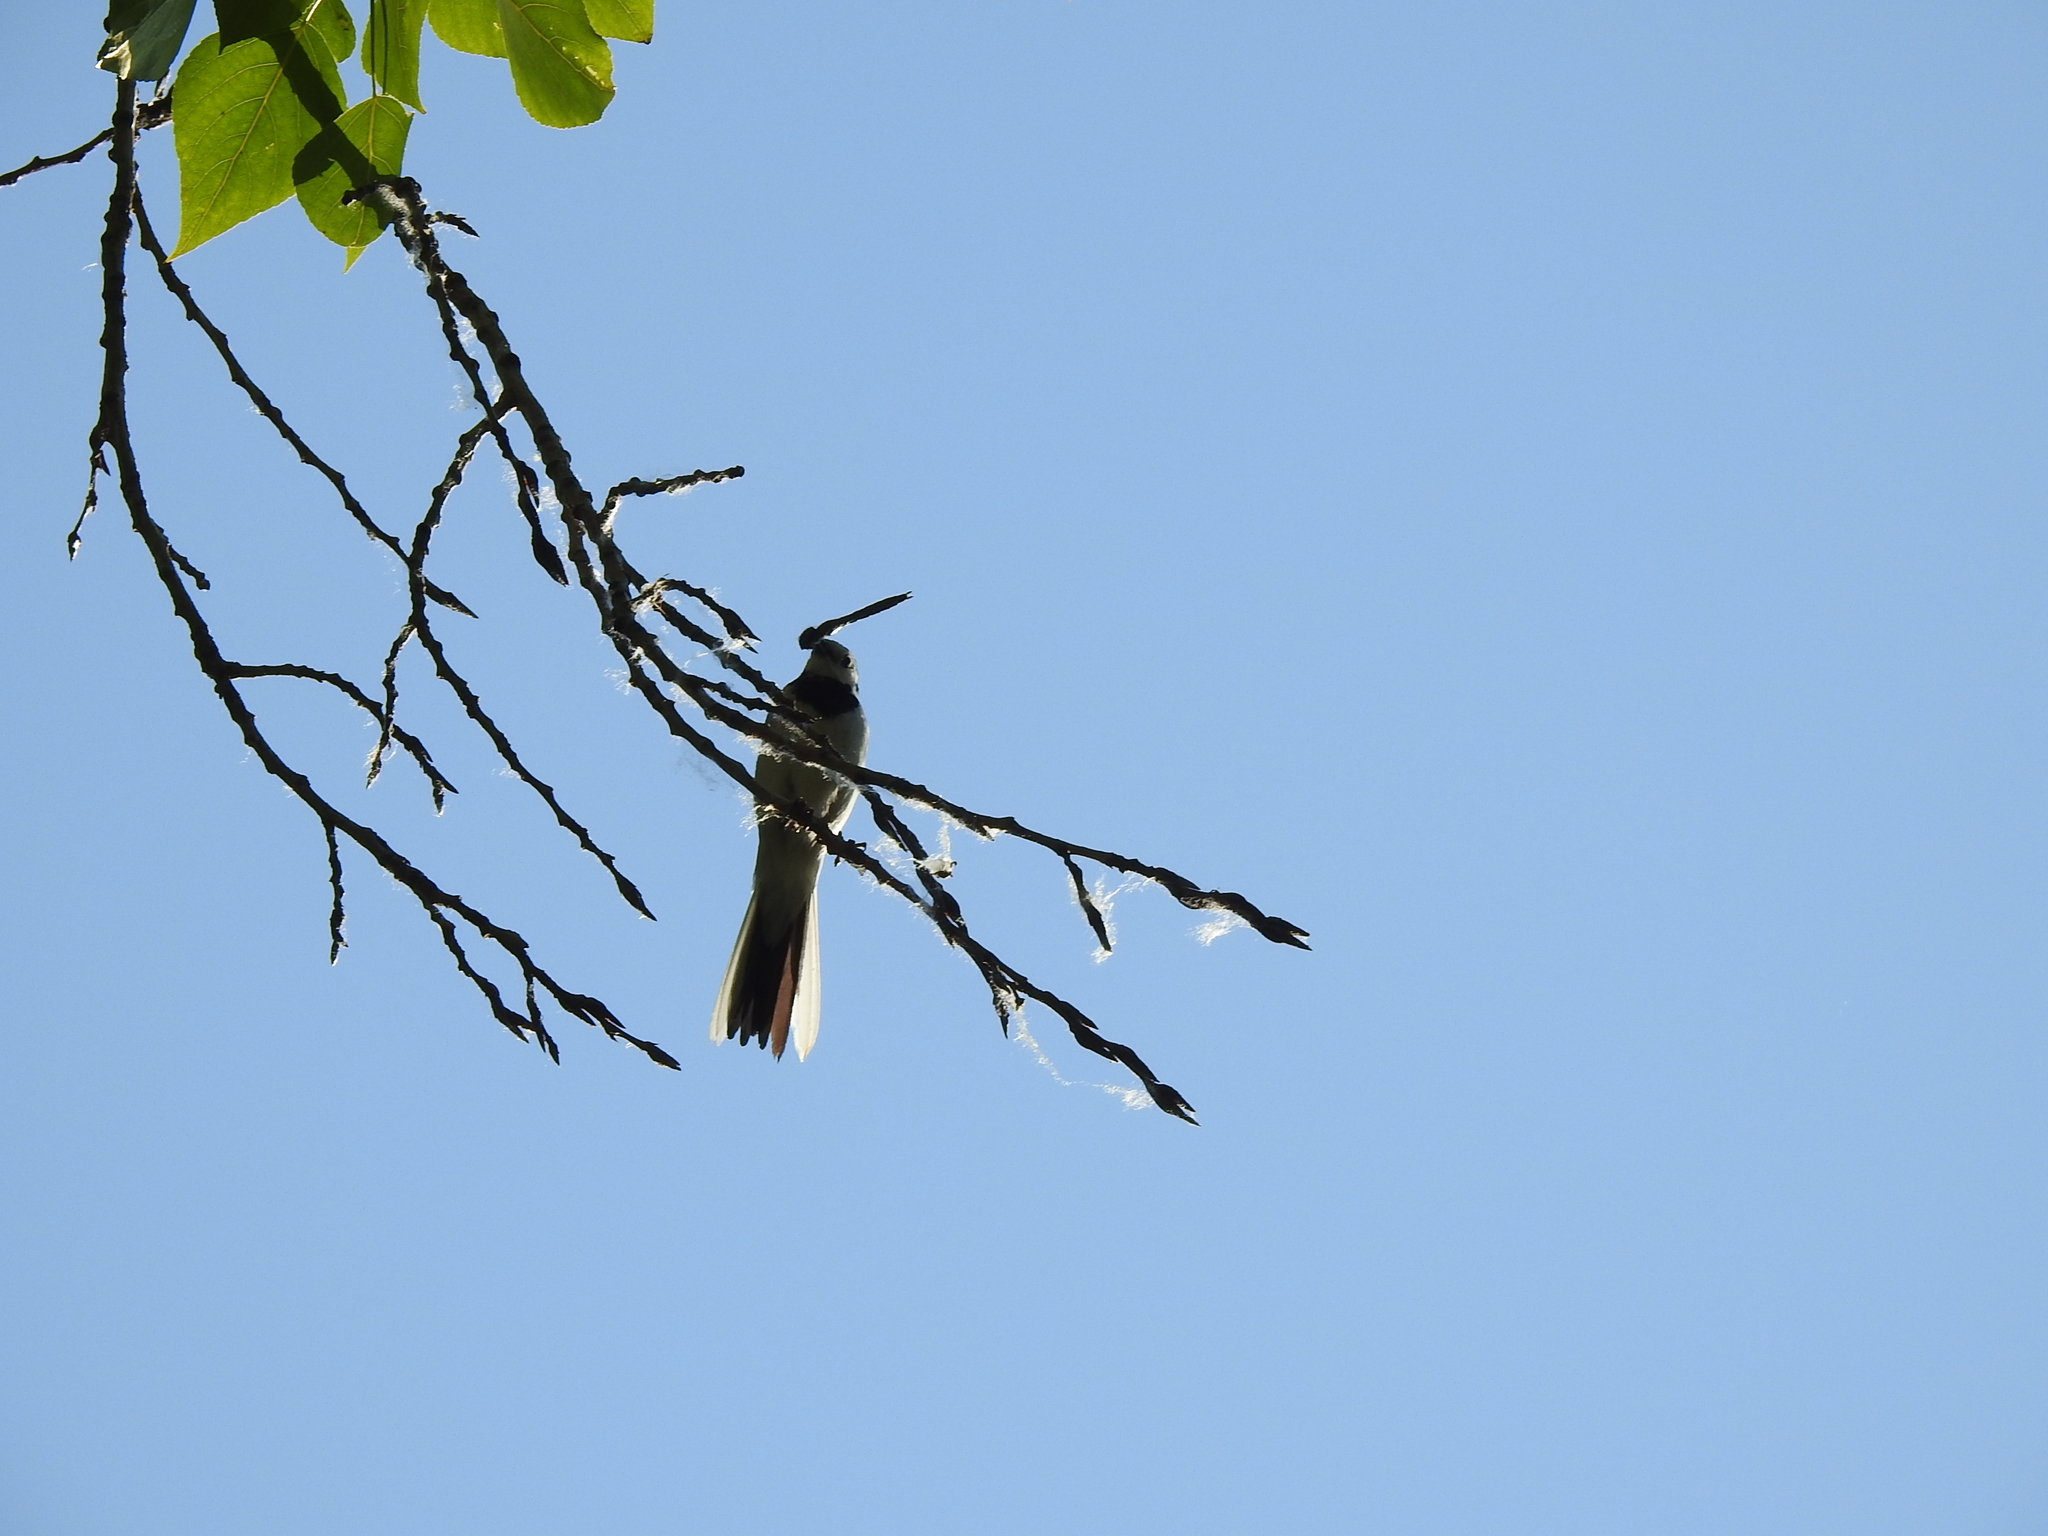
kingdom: Animalia
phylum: Chordata
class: Aves
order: Passeriformes
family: Motacillidae
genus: Motacilla
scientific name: Motacilla alba
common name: White wagtail
